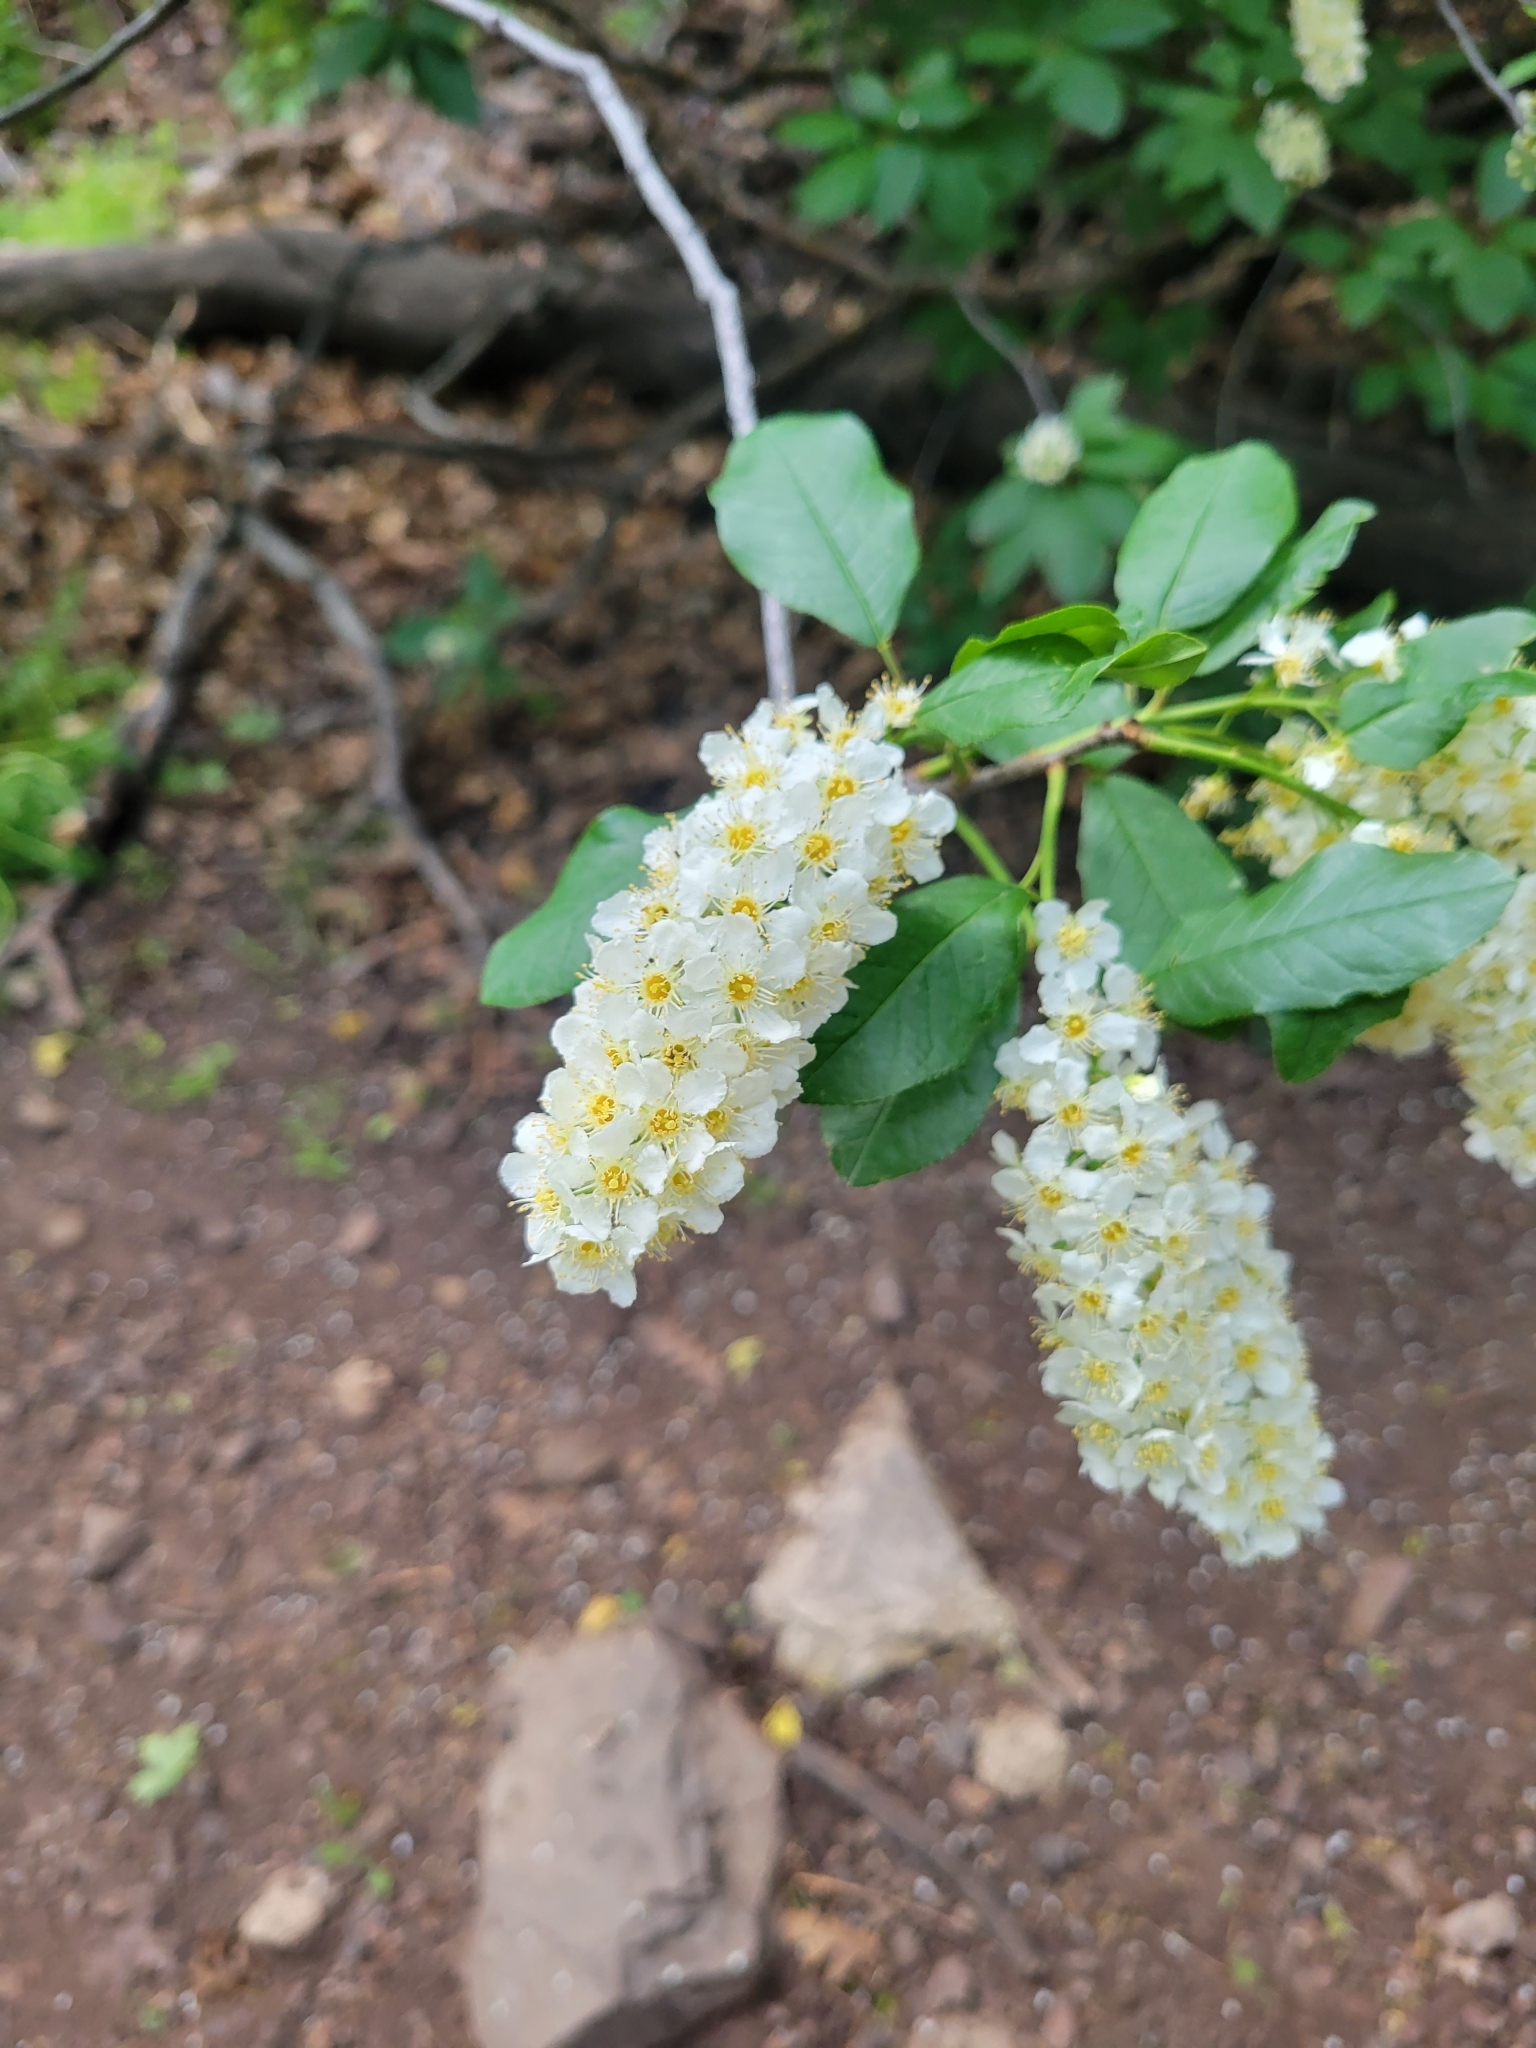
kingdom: Plantae
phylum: Tracheophyta
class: Magnoliopsida
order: Rosales
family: Rosaceae
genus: Prunus
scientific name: Prunus virginiana
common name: Chokecherry
